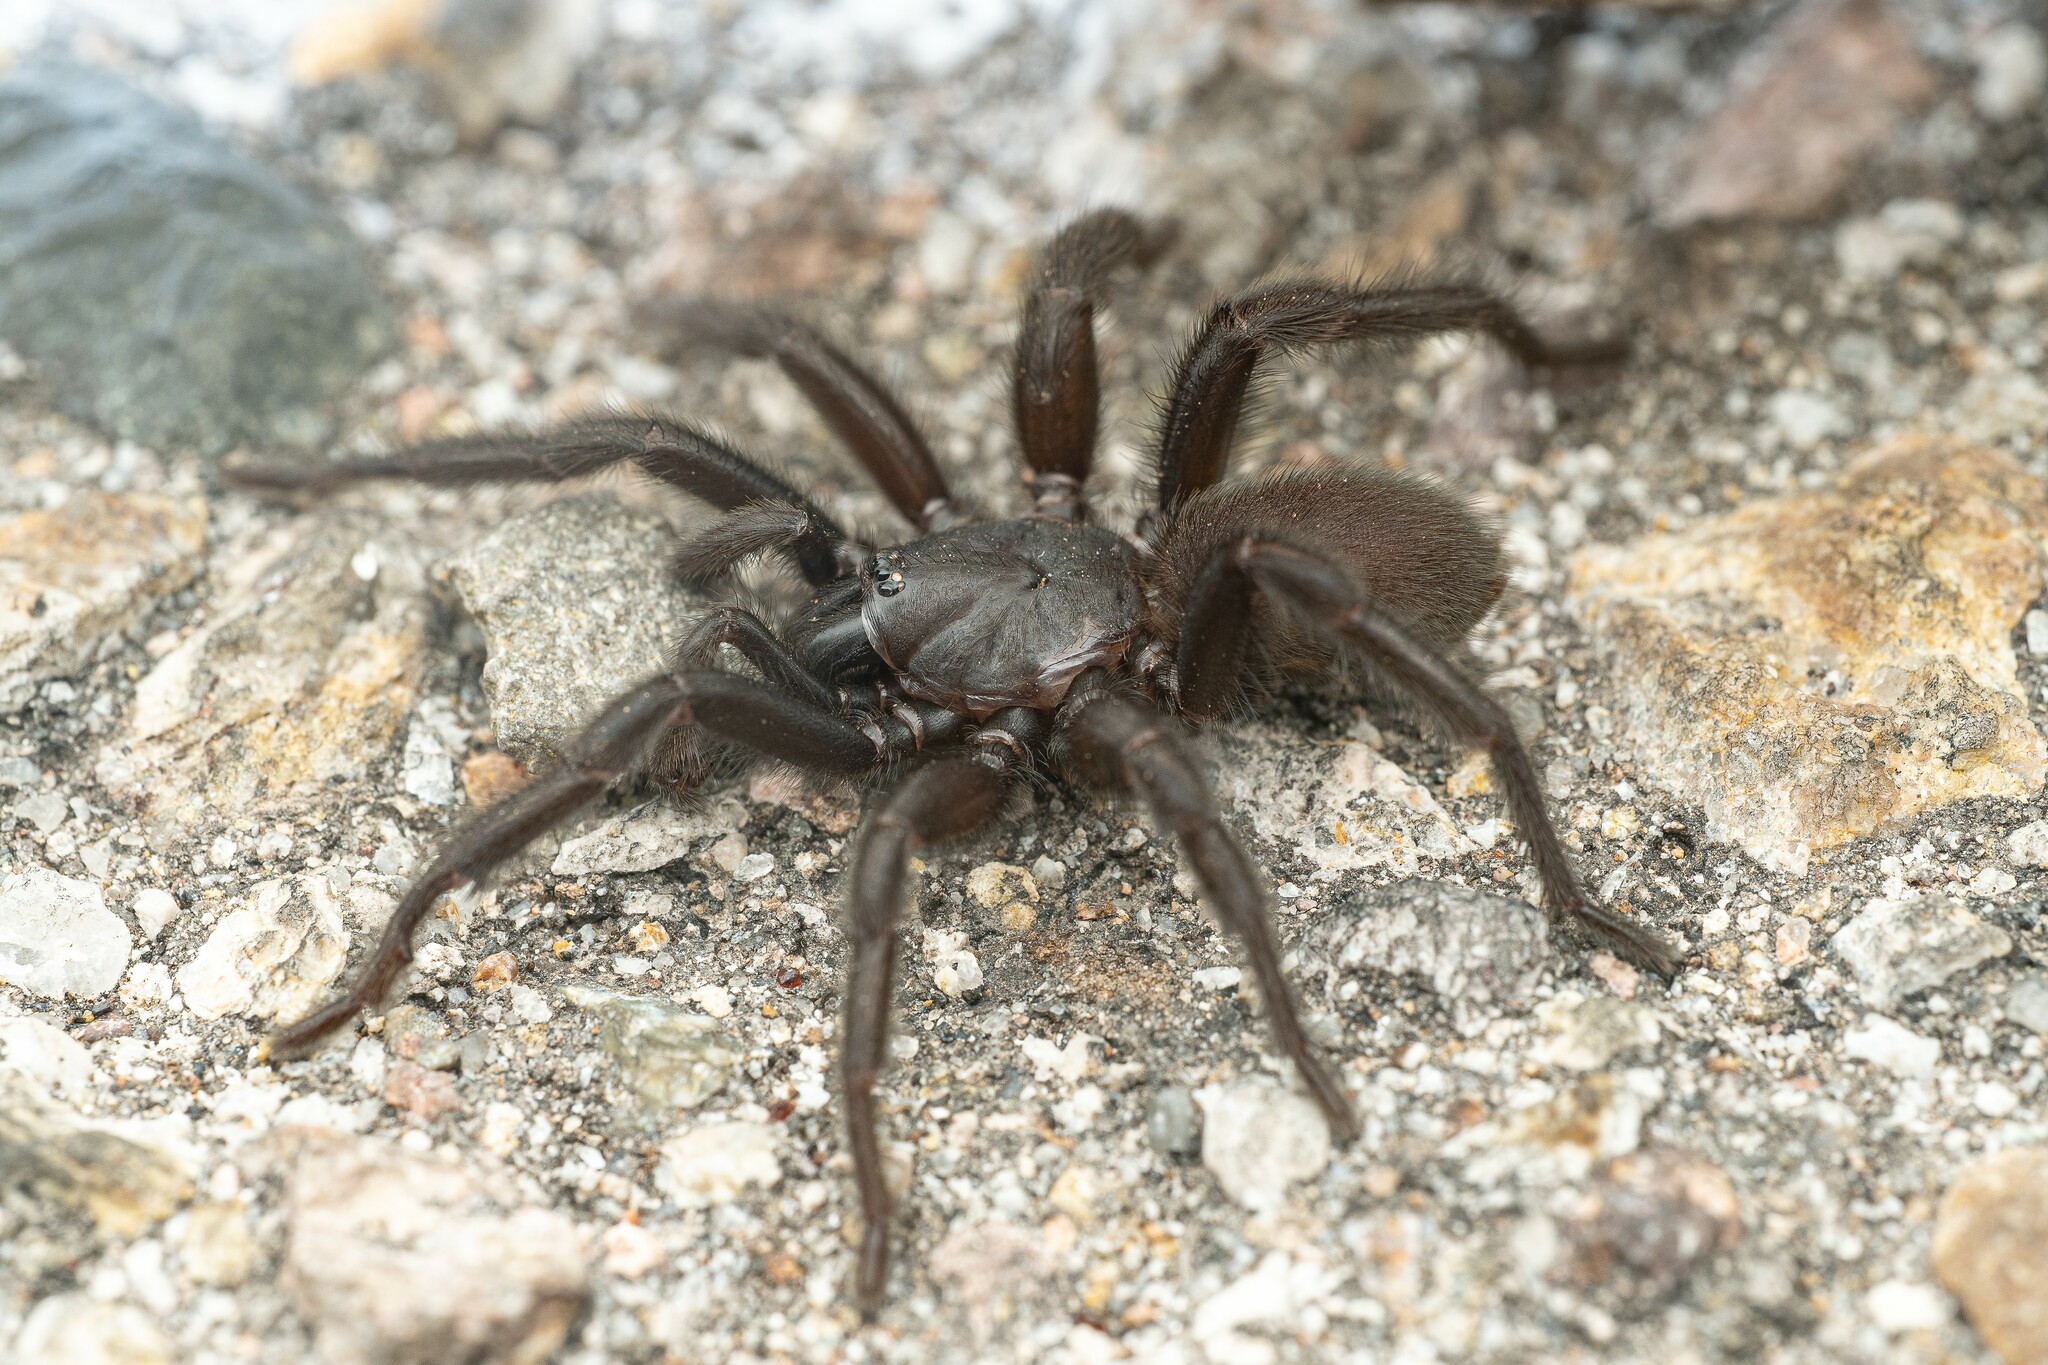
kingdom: Animalia
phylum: Arthropoda
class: Arachnida
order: Araneae
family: Euctenizidae
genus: Entychides
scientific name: Entychides arizonicus
